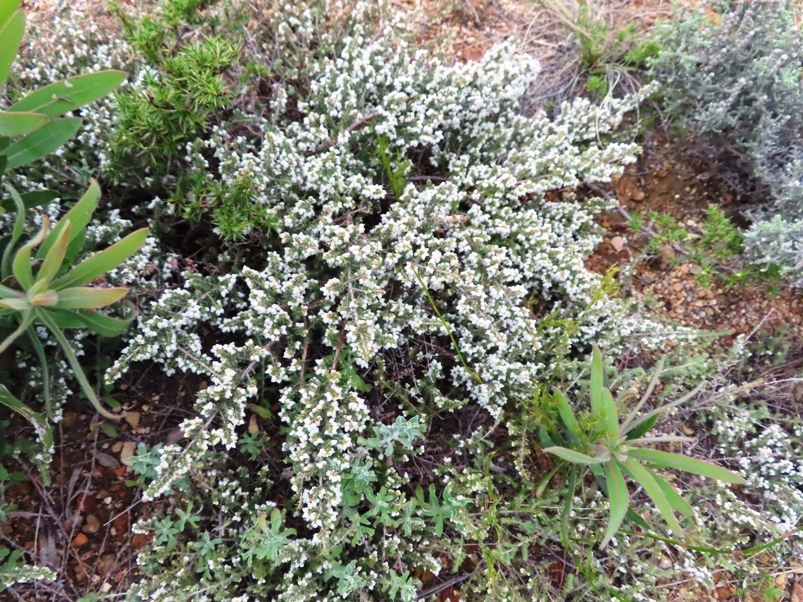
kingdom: Plantae
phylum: Tracheophyta
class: Magnoliopsida
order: Ericales
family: Ericaceae
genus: Erica
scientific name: Erica totta
